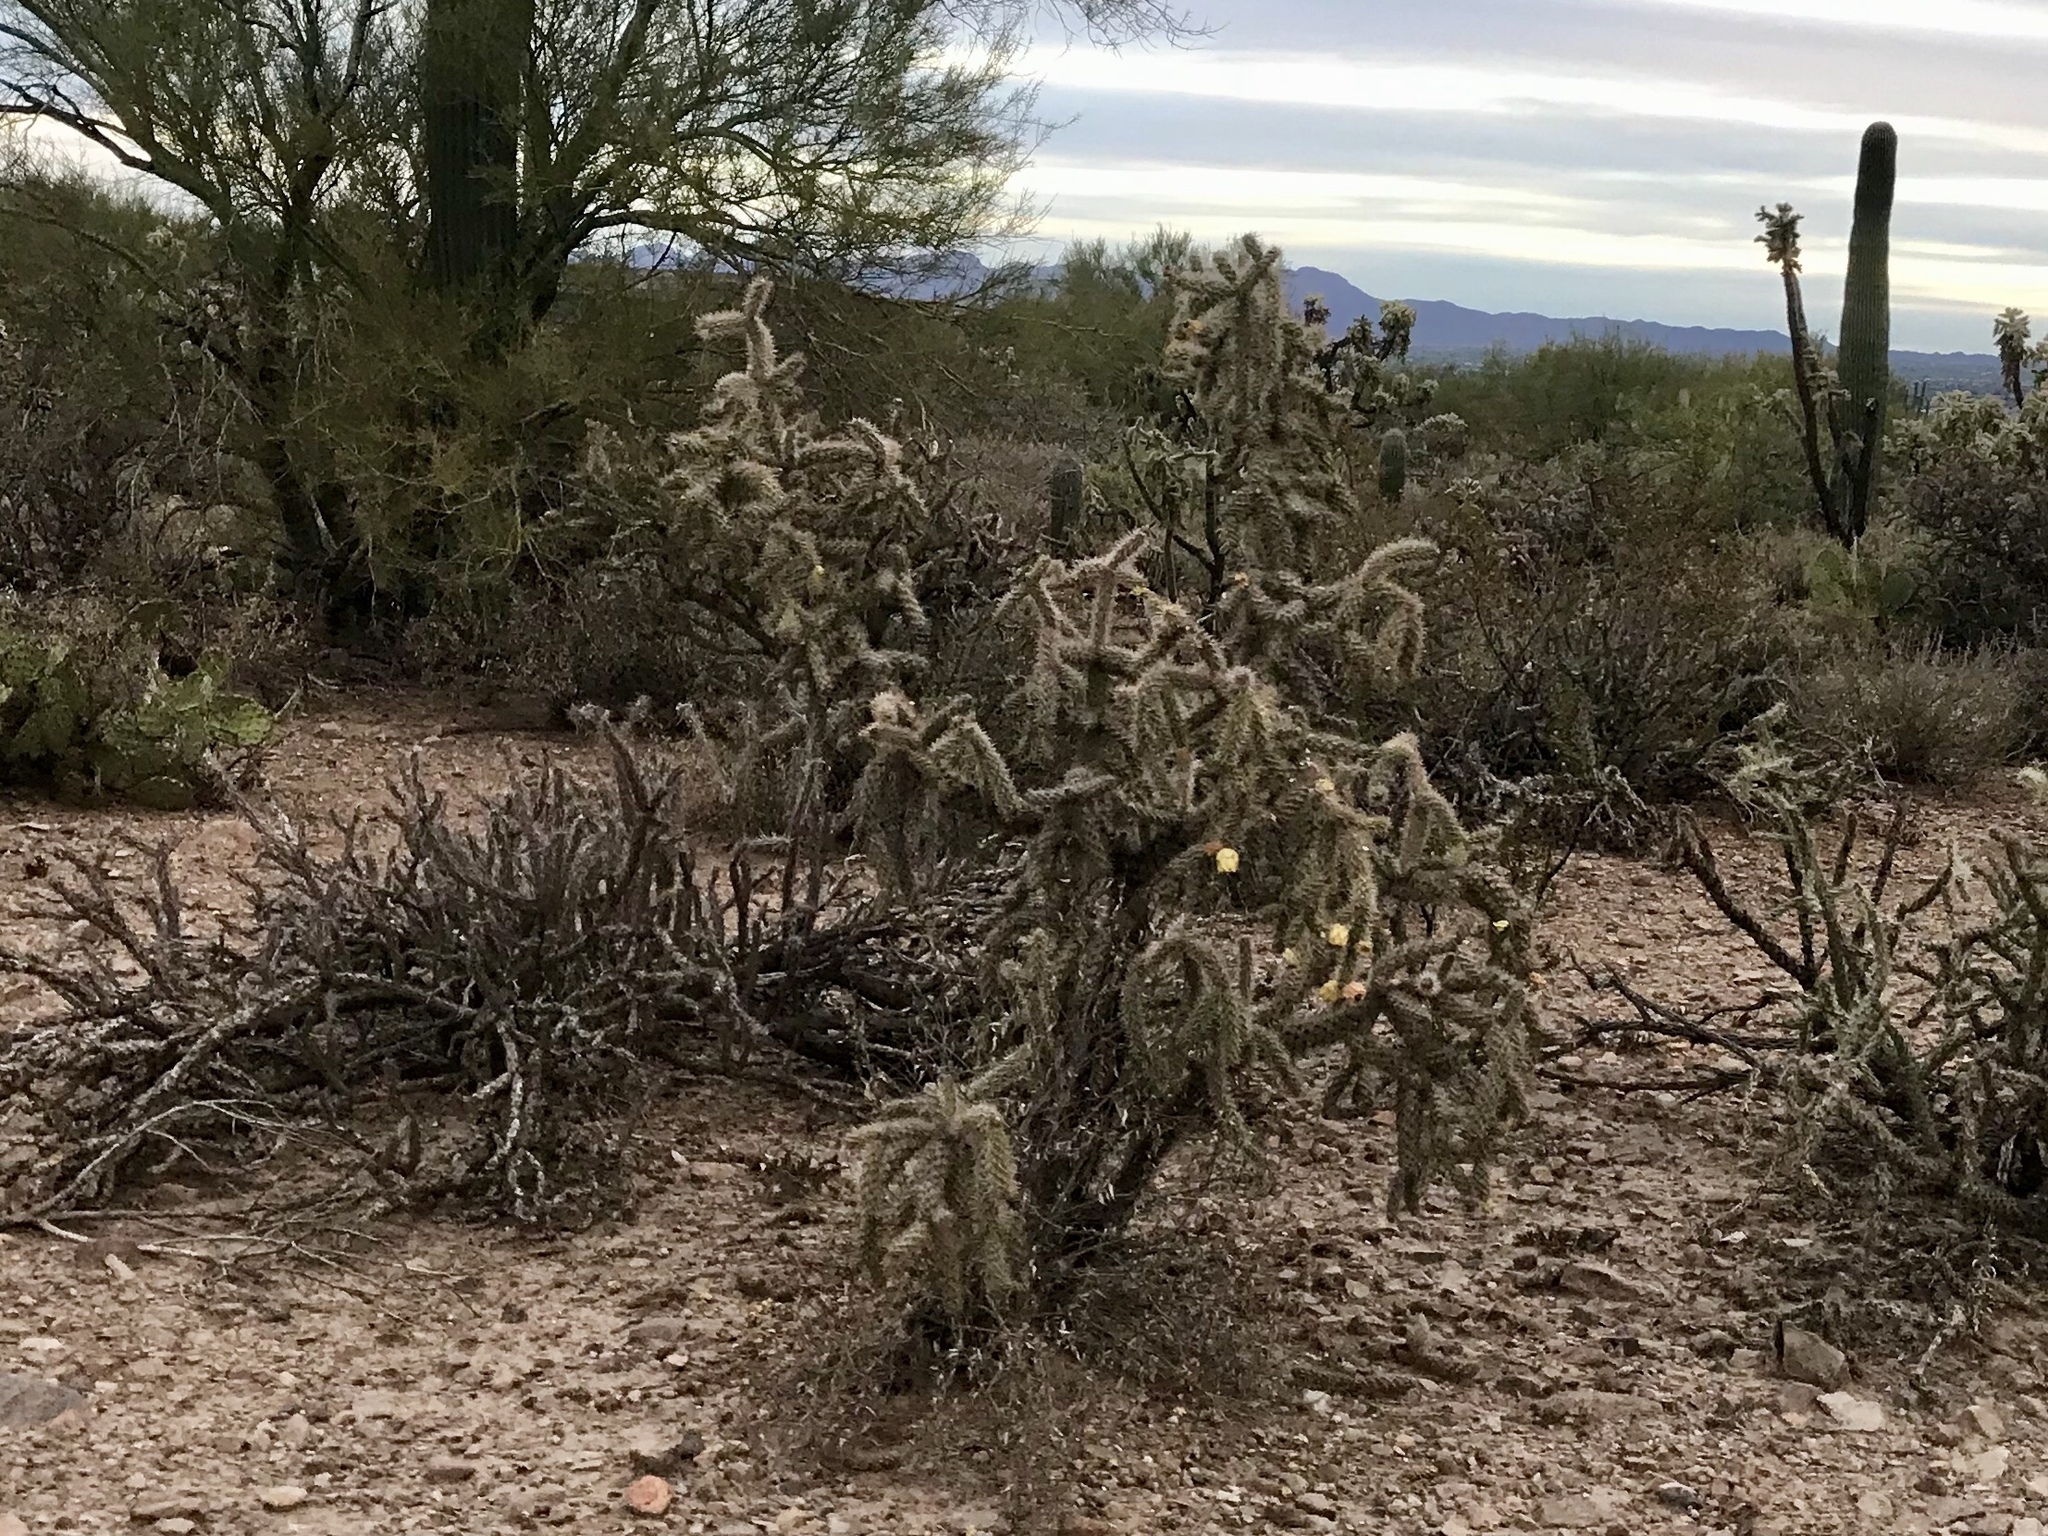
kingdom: Plantae
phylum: Tracheophyta
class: Magnoliopsida
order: Caryophyllales
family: Cactaceae
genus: Cylindropuntia
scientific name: Cylindropuntia imbricata
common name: Candelabrum cactus
